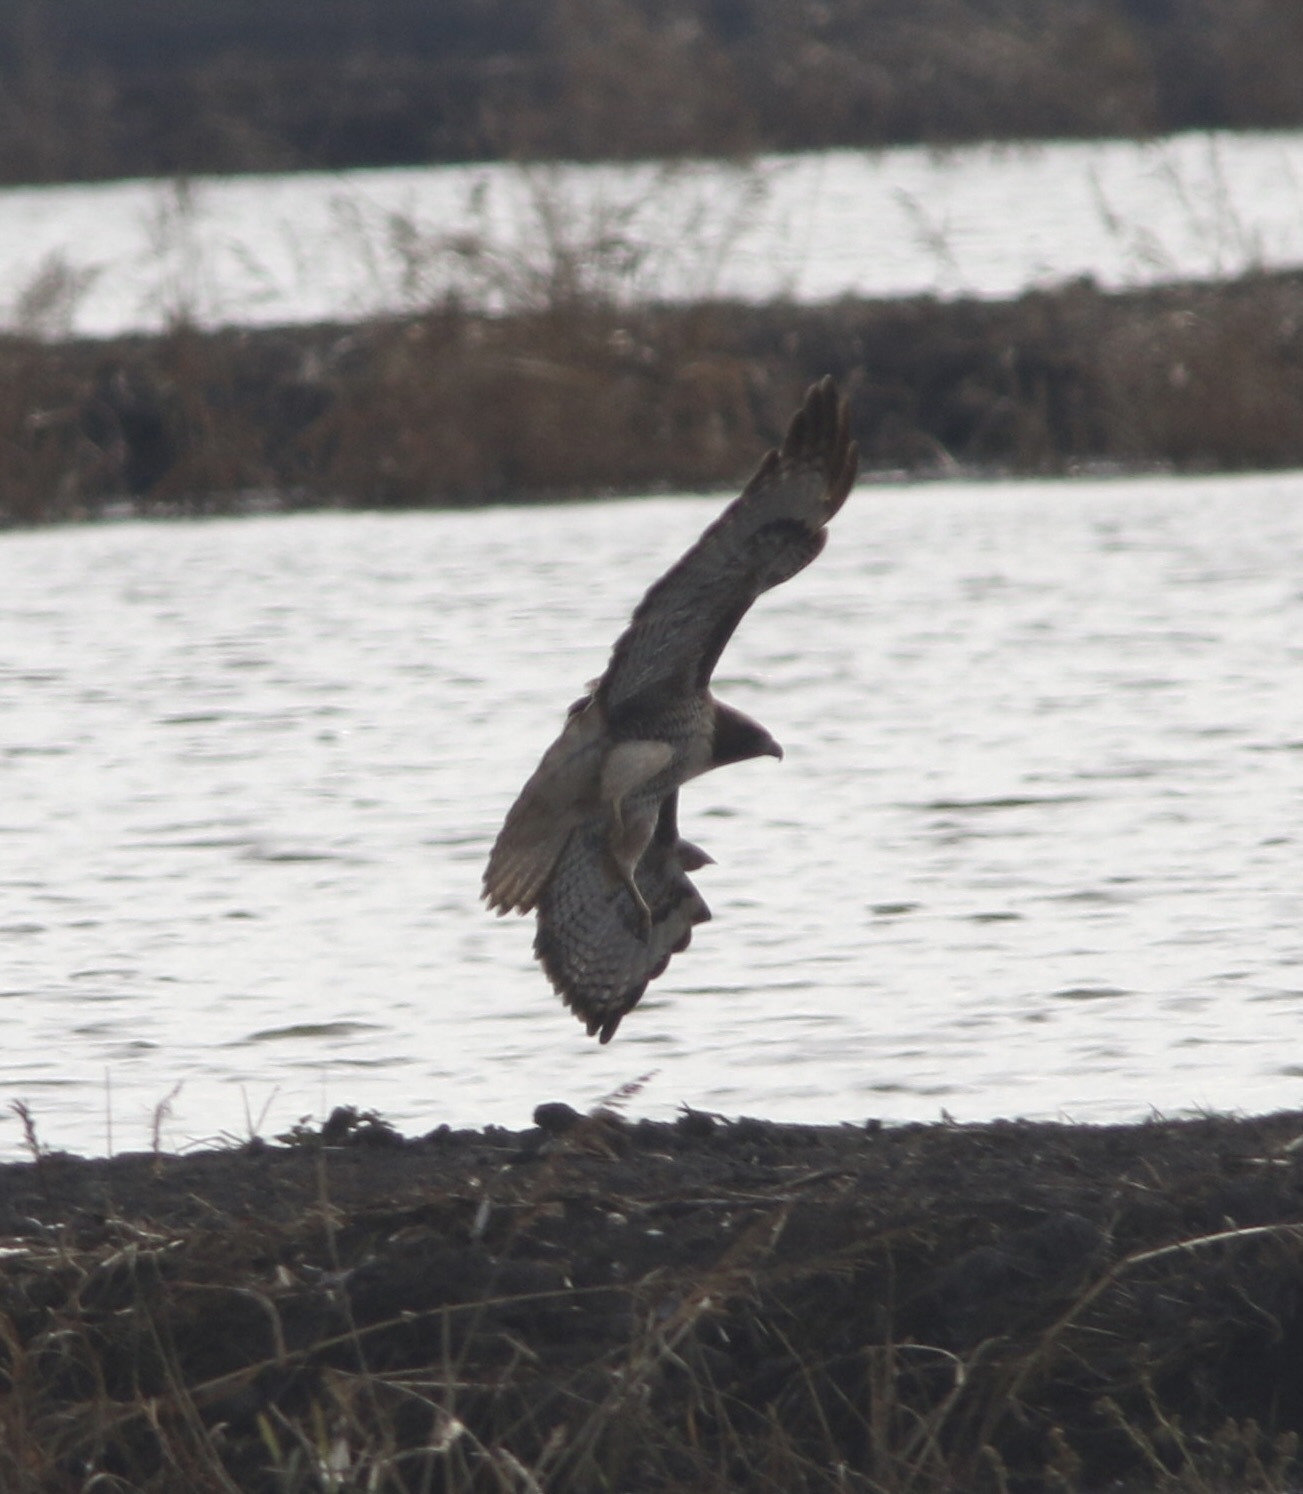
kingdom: Animalia
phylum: Chordata
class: Aves
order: Accipitriformes
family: Accipitridae
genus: Buteo
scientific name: Buteo jamaicensis
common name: Red-tailed hawk
